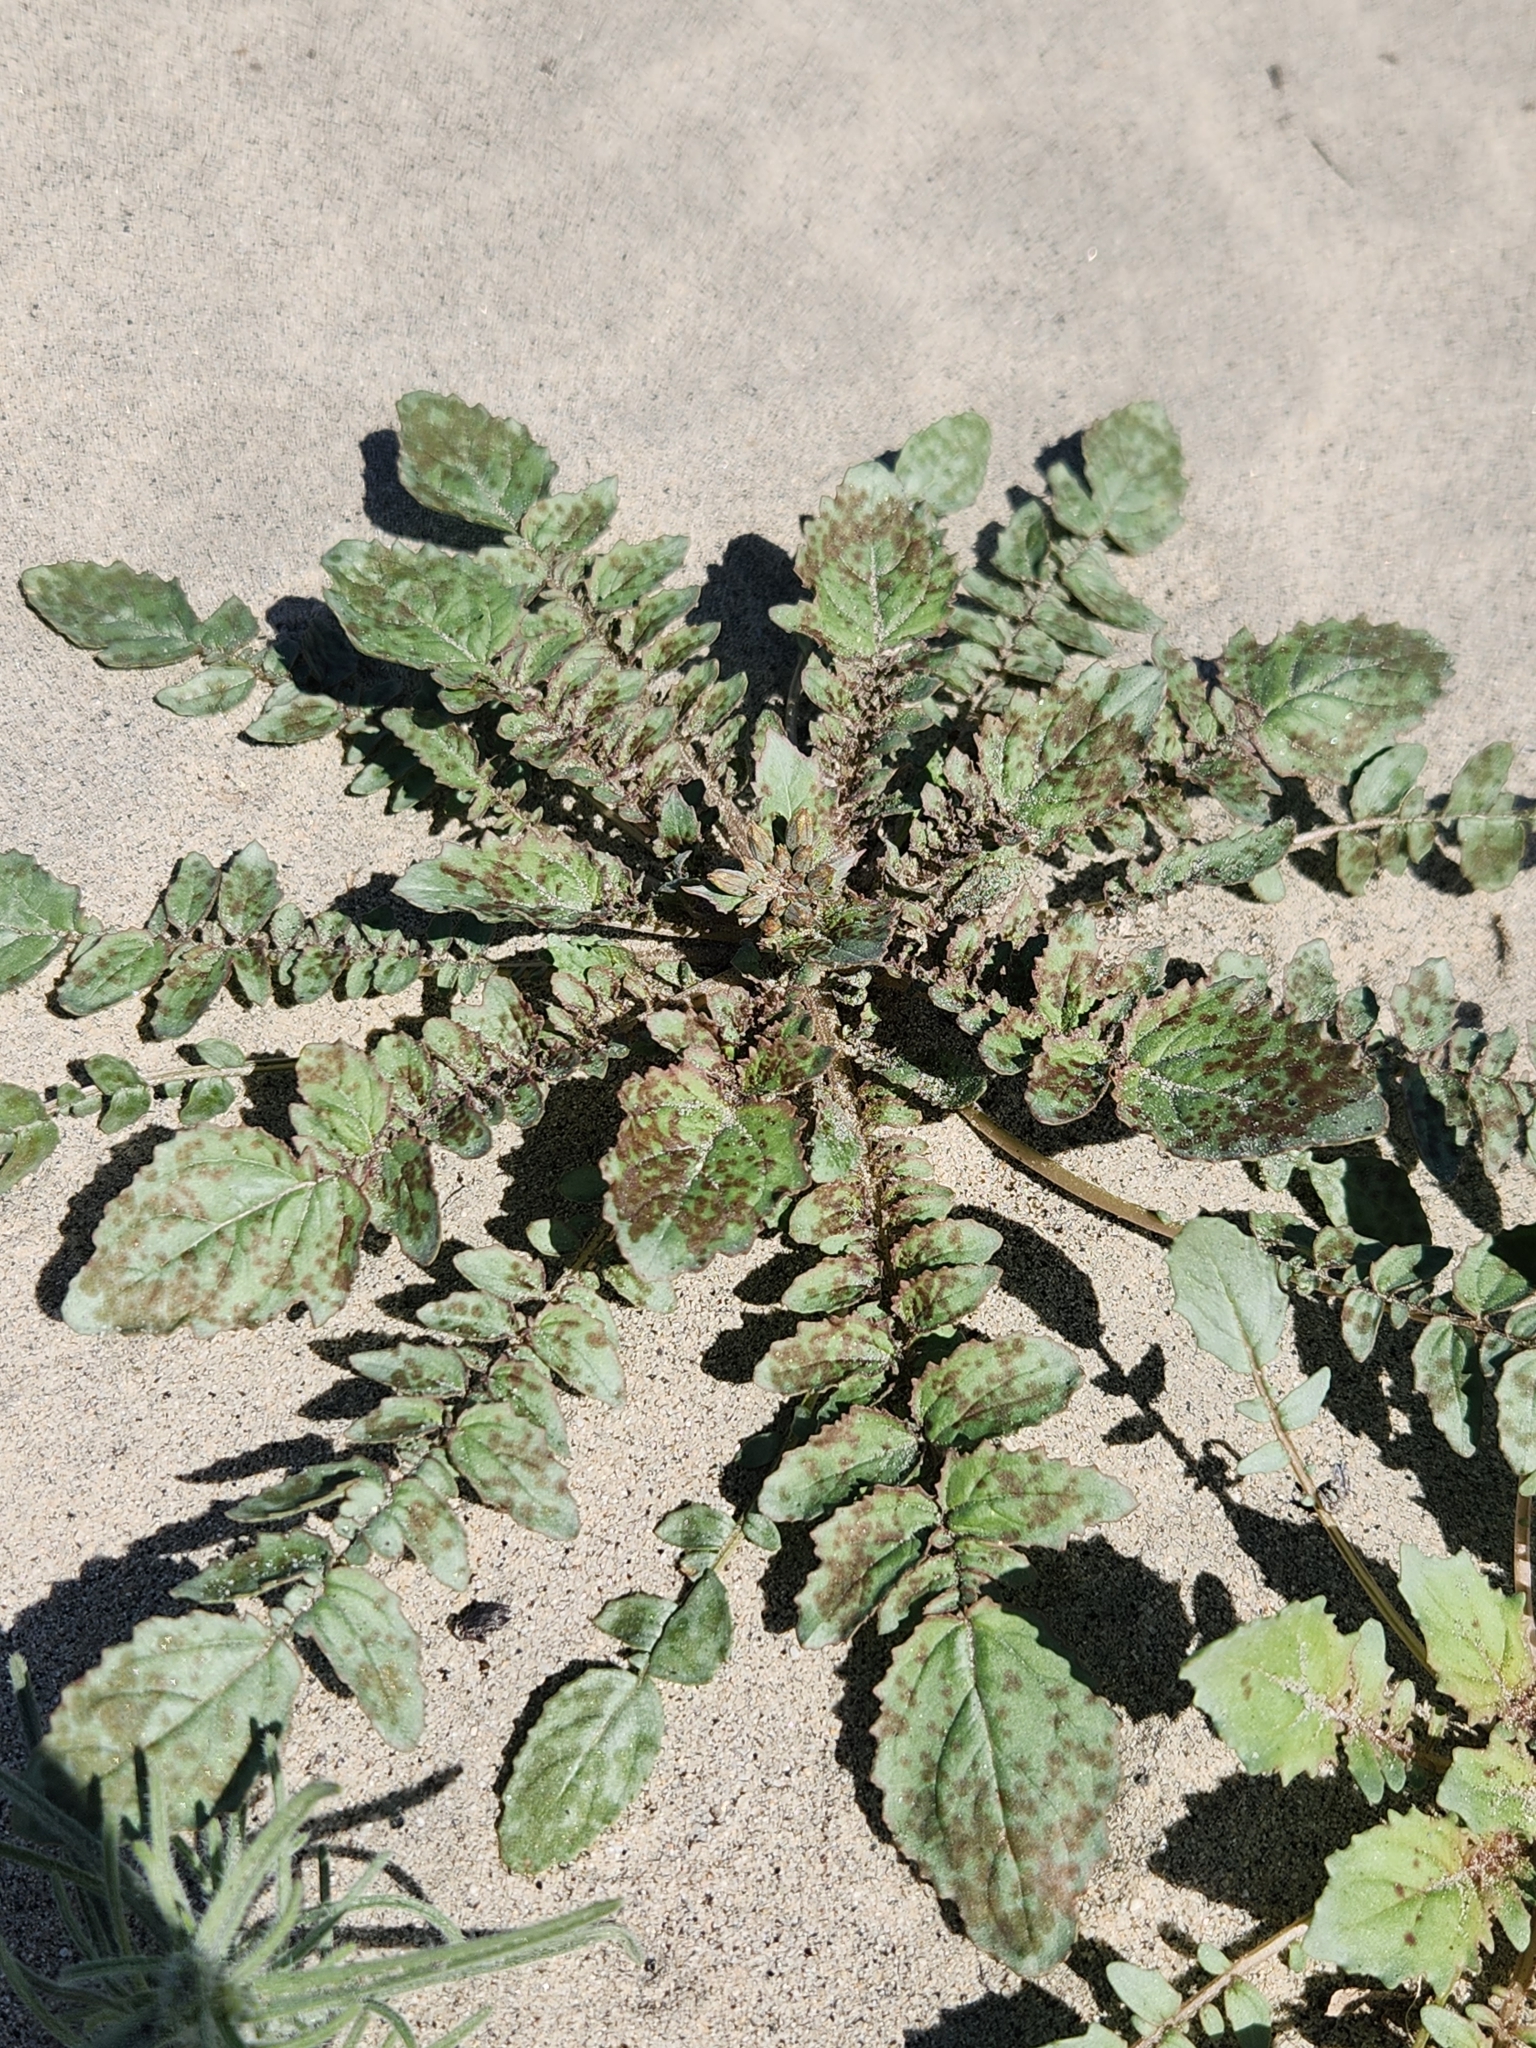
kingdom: Plantae
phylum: Tracheophyta
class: Magnoliopsida
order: Myrtales
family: Onagraceae
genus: Chylismia
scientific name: Chylismia claviformis
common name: Browneyes
